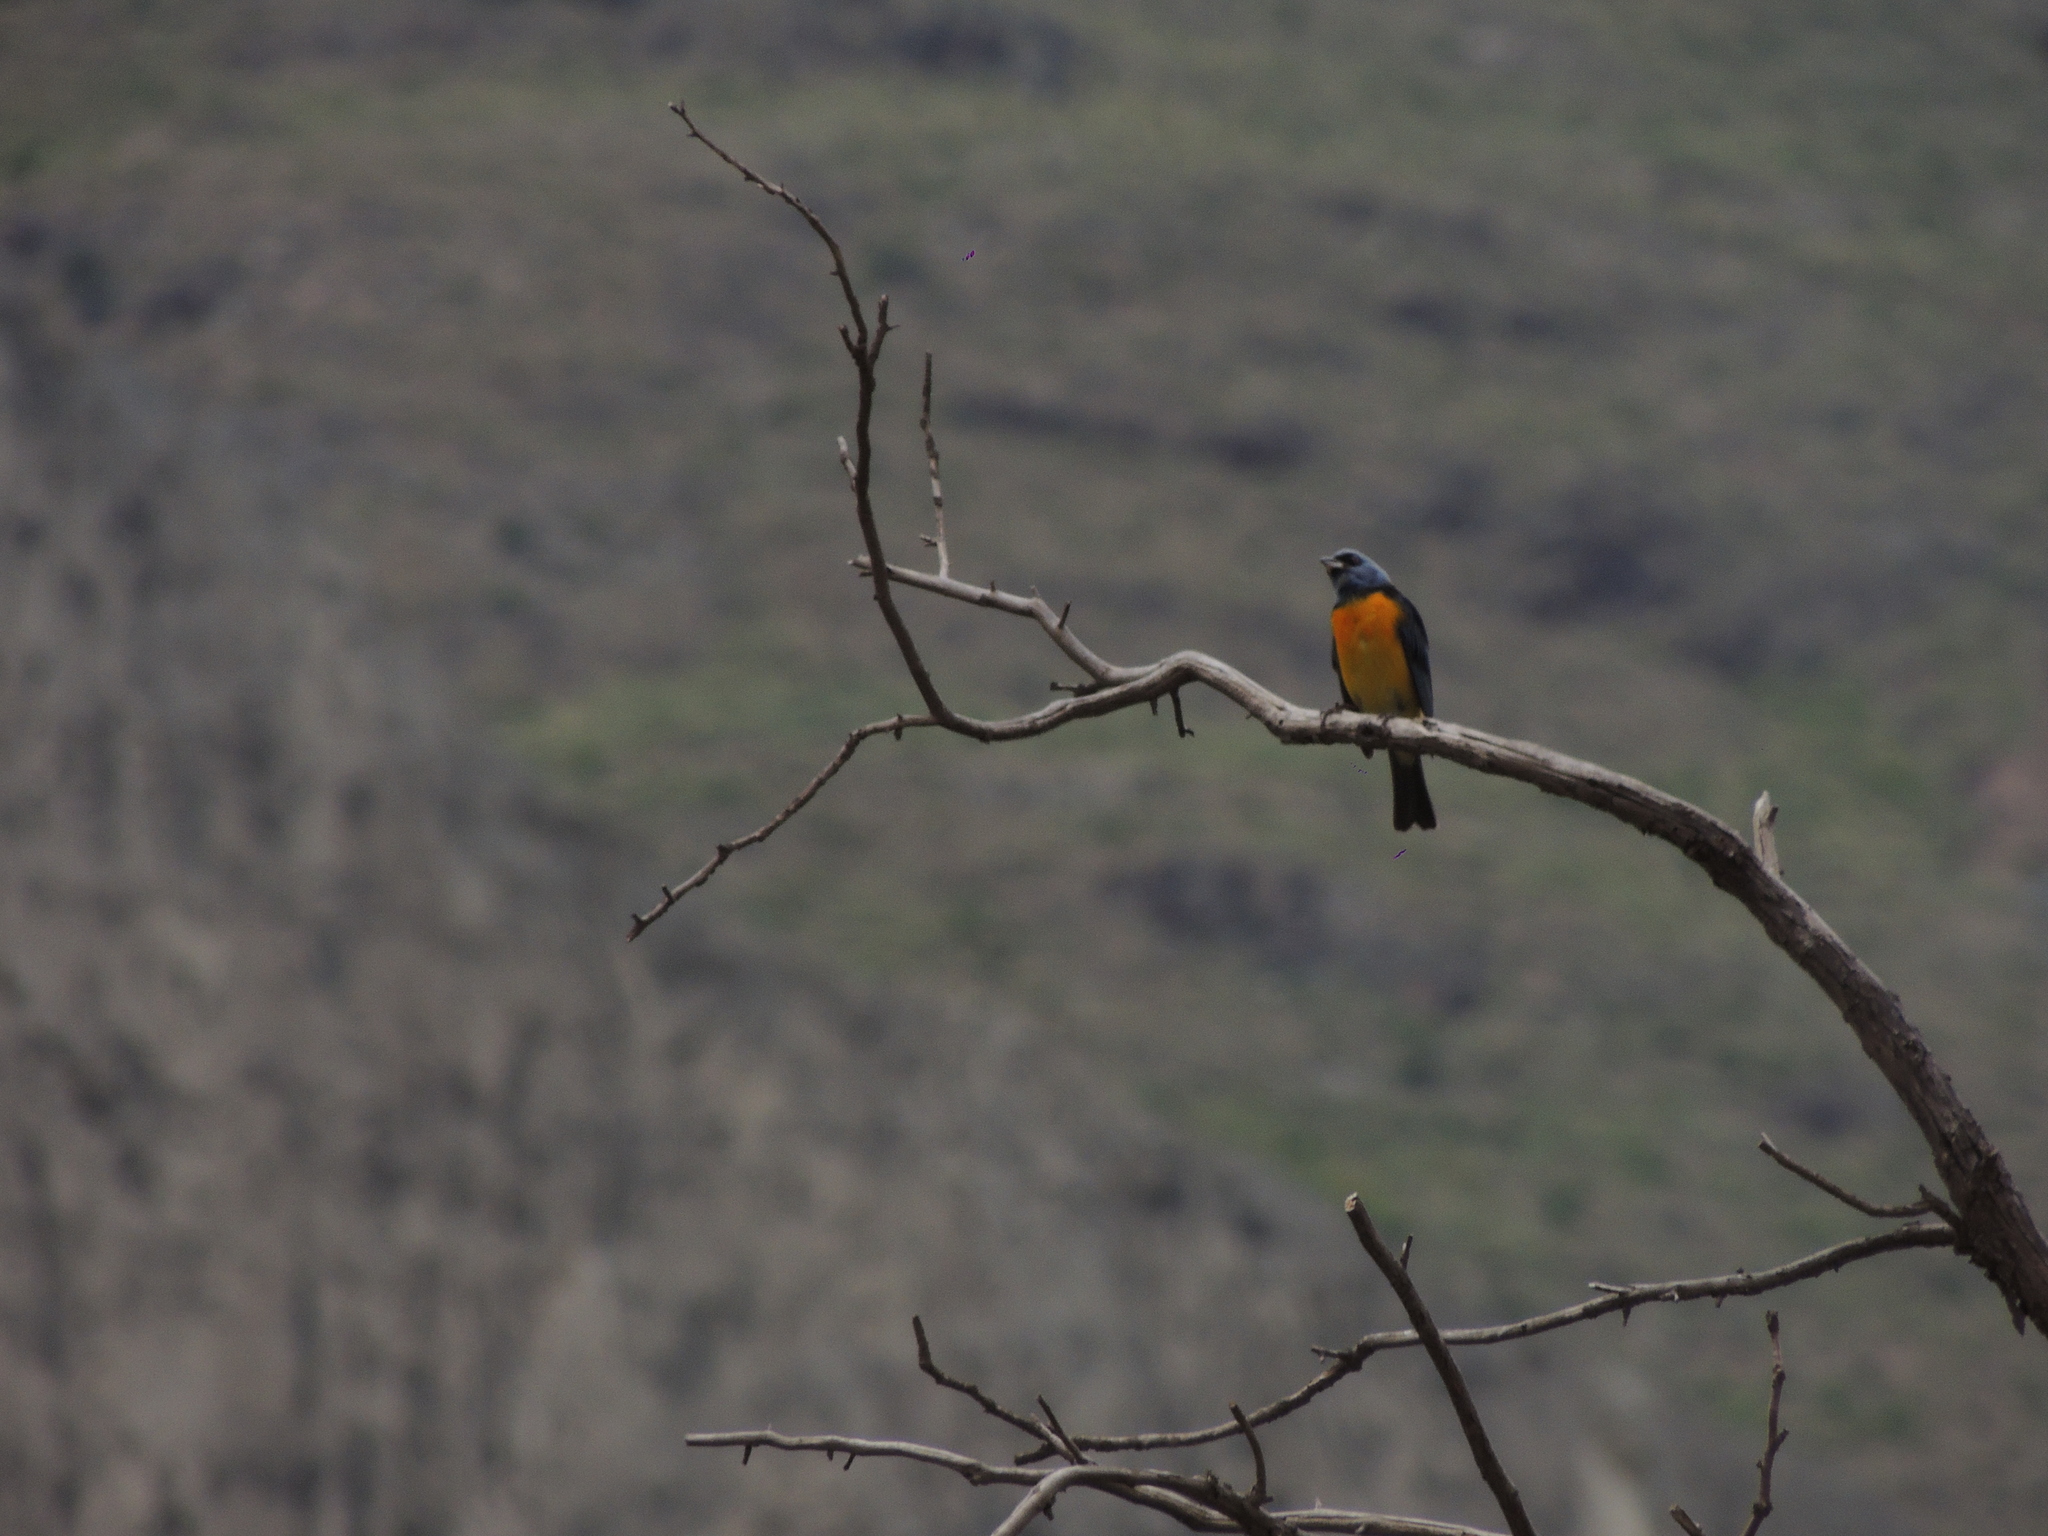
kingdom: Animalia
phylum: Chordata
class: Aves
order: Passeriformes
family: Thraupidae
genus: Rauenia
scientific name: Rauenia bonariensis
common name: Blue-and-yellow tanager
